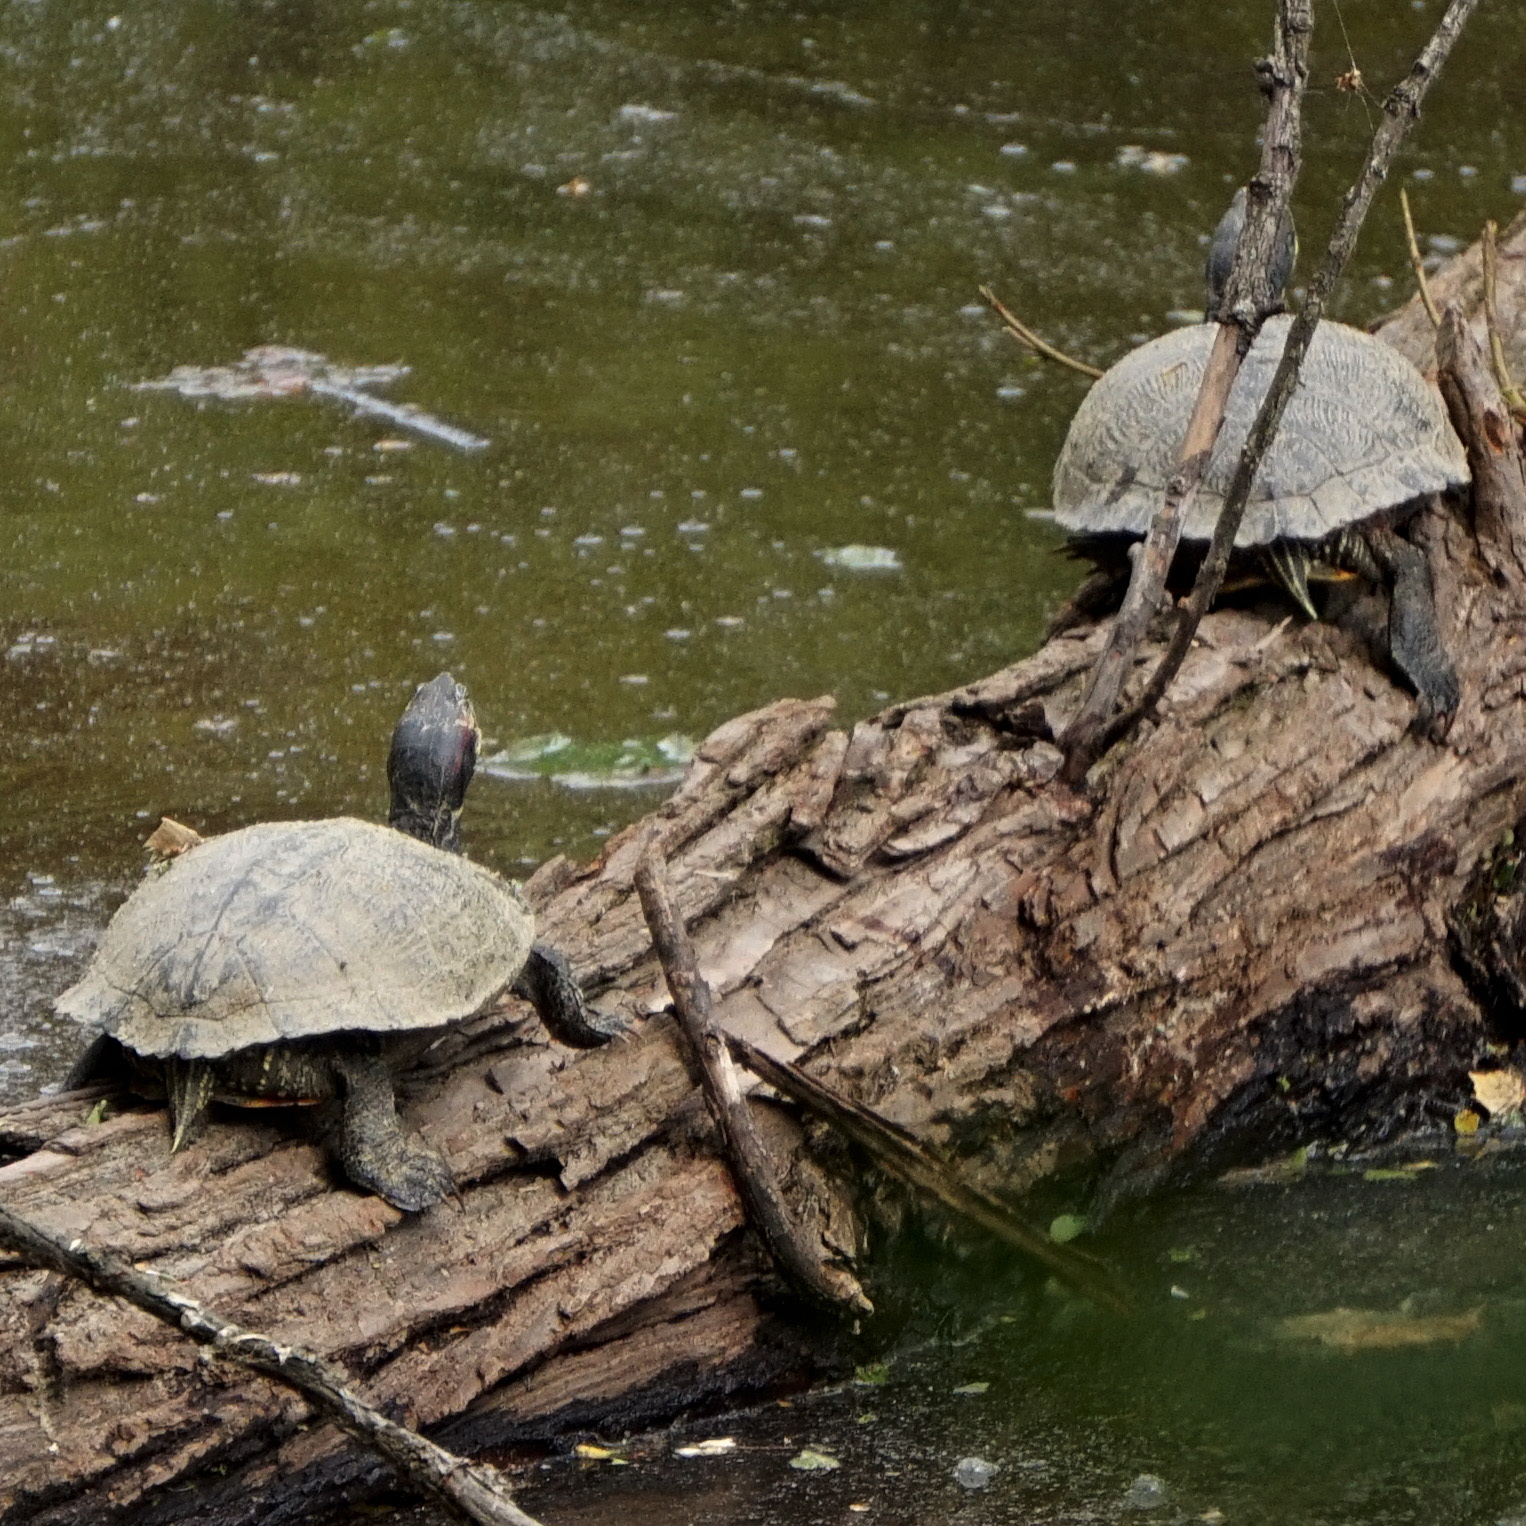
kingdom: Animalia
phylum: Chordata
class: Testudines
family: Emydidae
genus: Trachemys
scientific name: Trachemys scripta
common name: Slider
